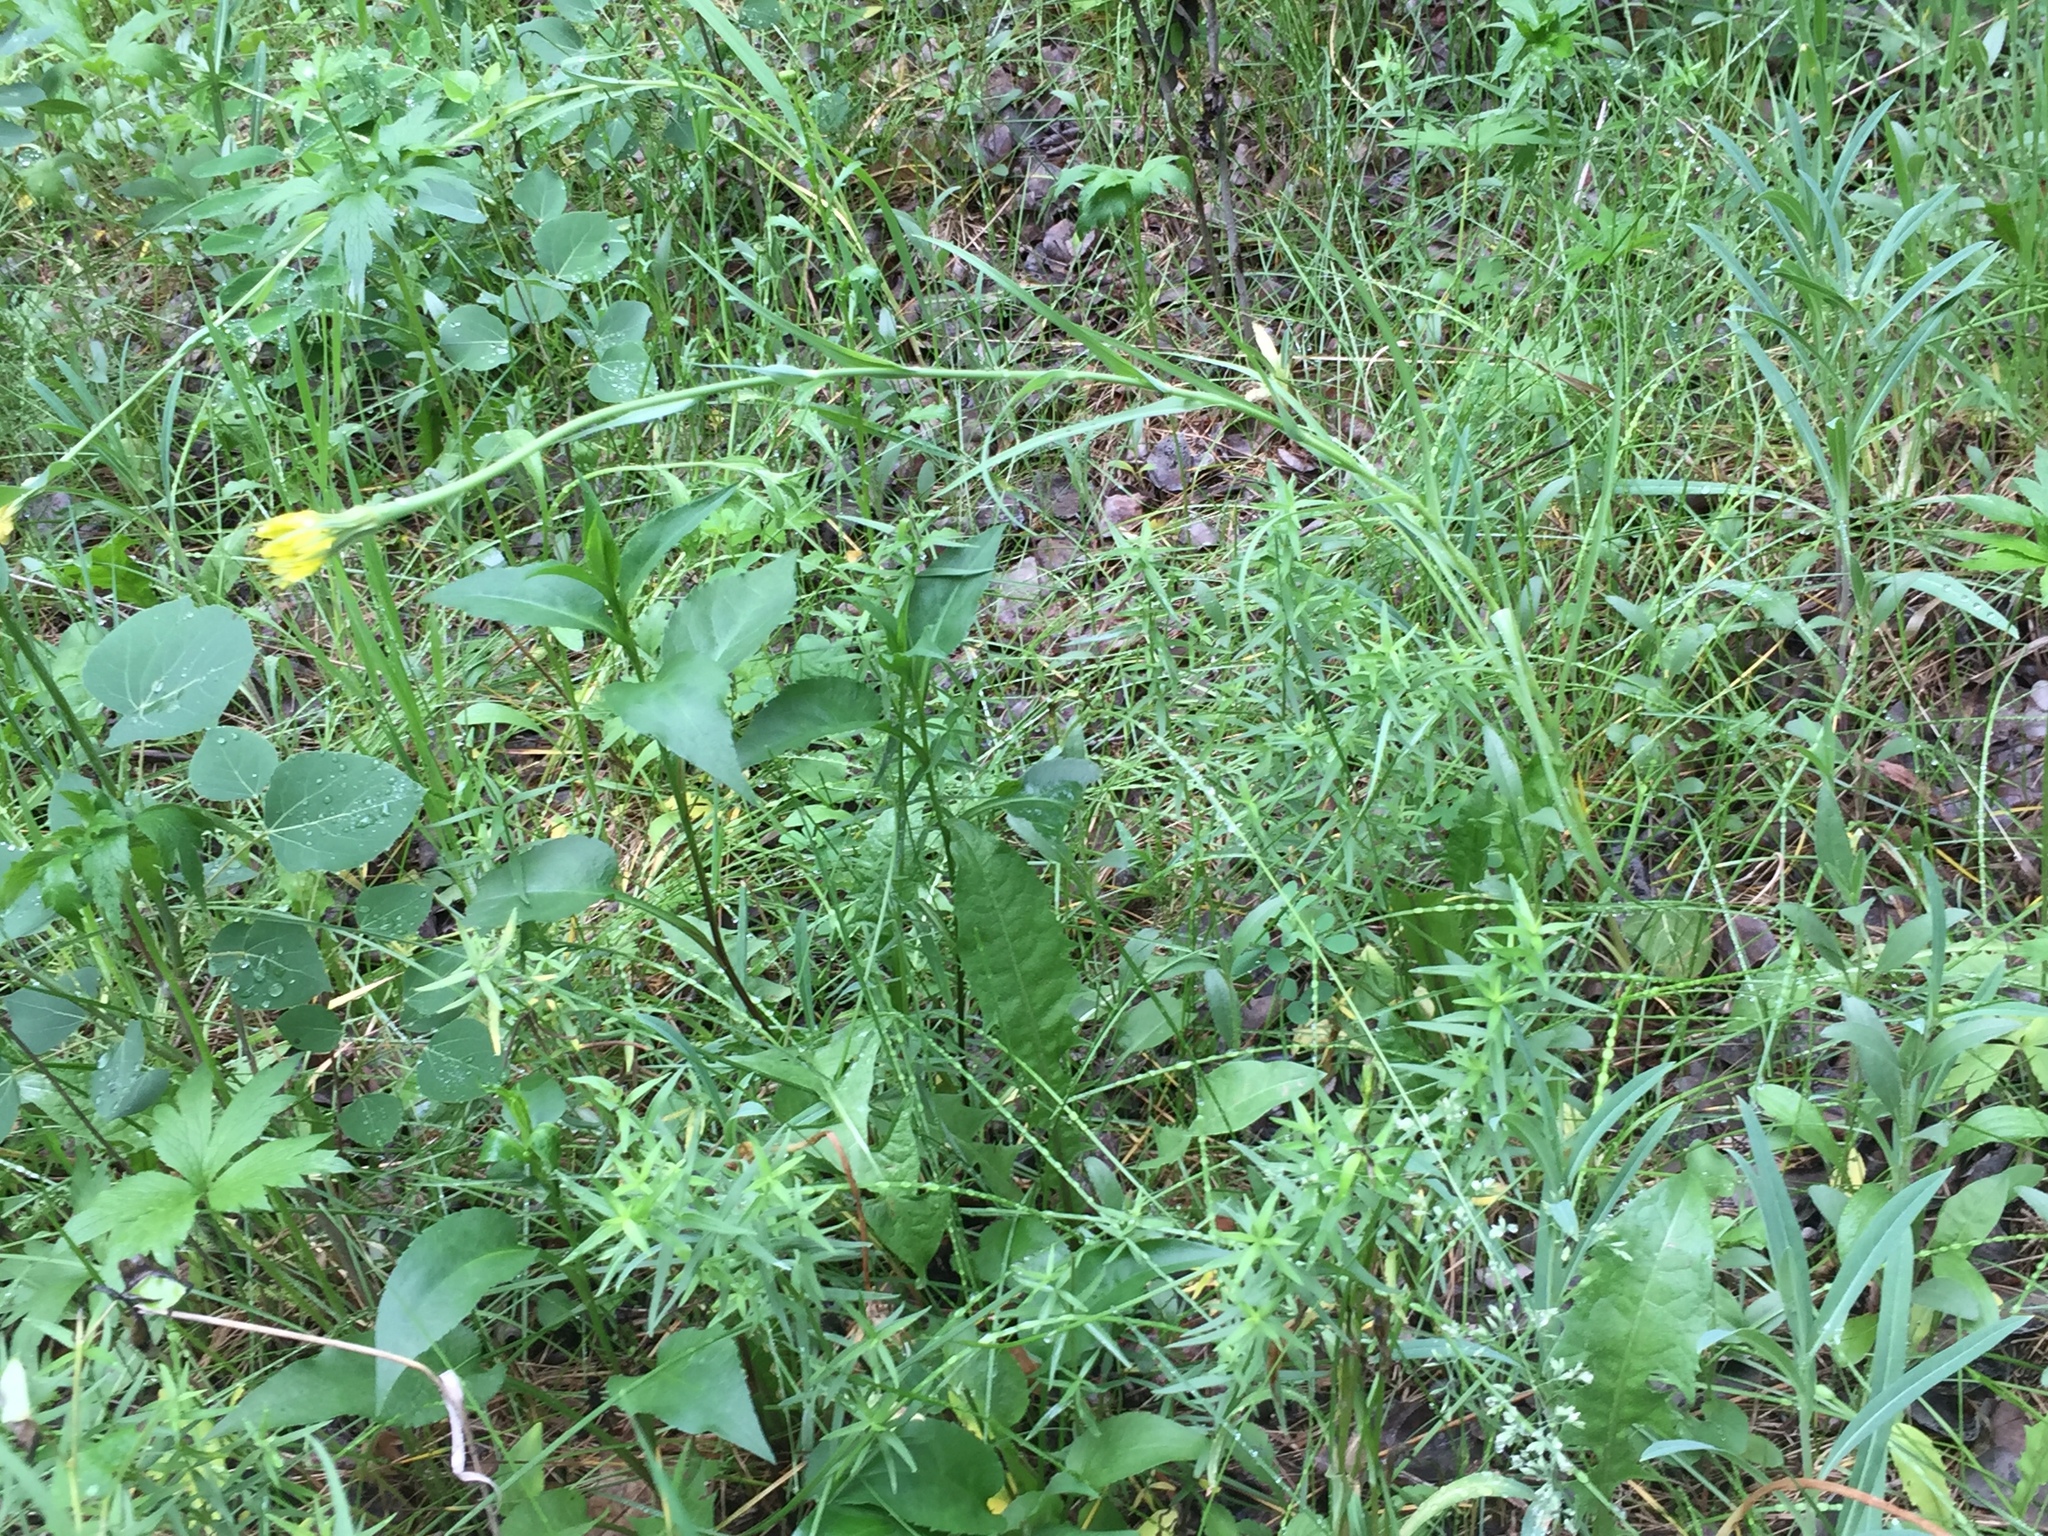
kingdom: Plantae
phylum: Tracheophyta
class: Magnoliopsida
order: Asterales
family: Asteraceae
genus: Tragopogon
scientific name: Tragopogon dubius
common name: Yellow salsify
